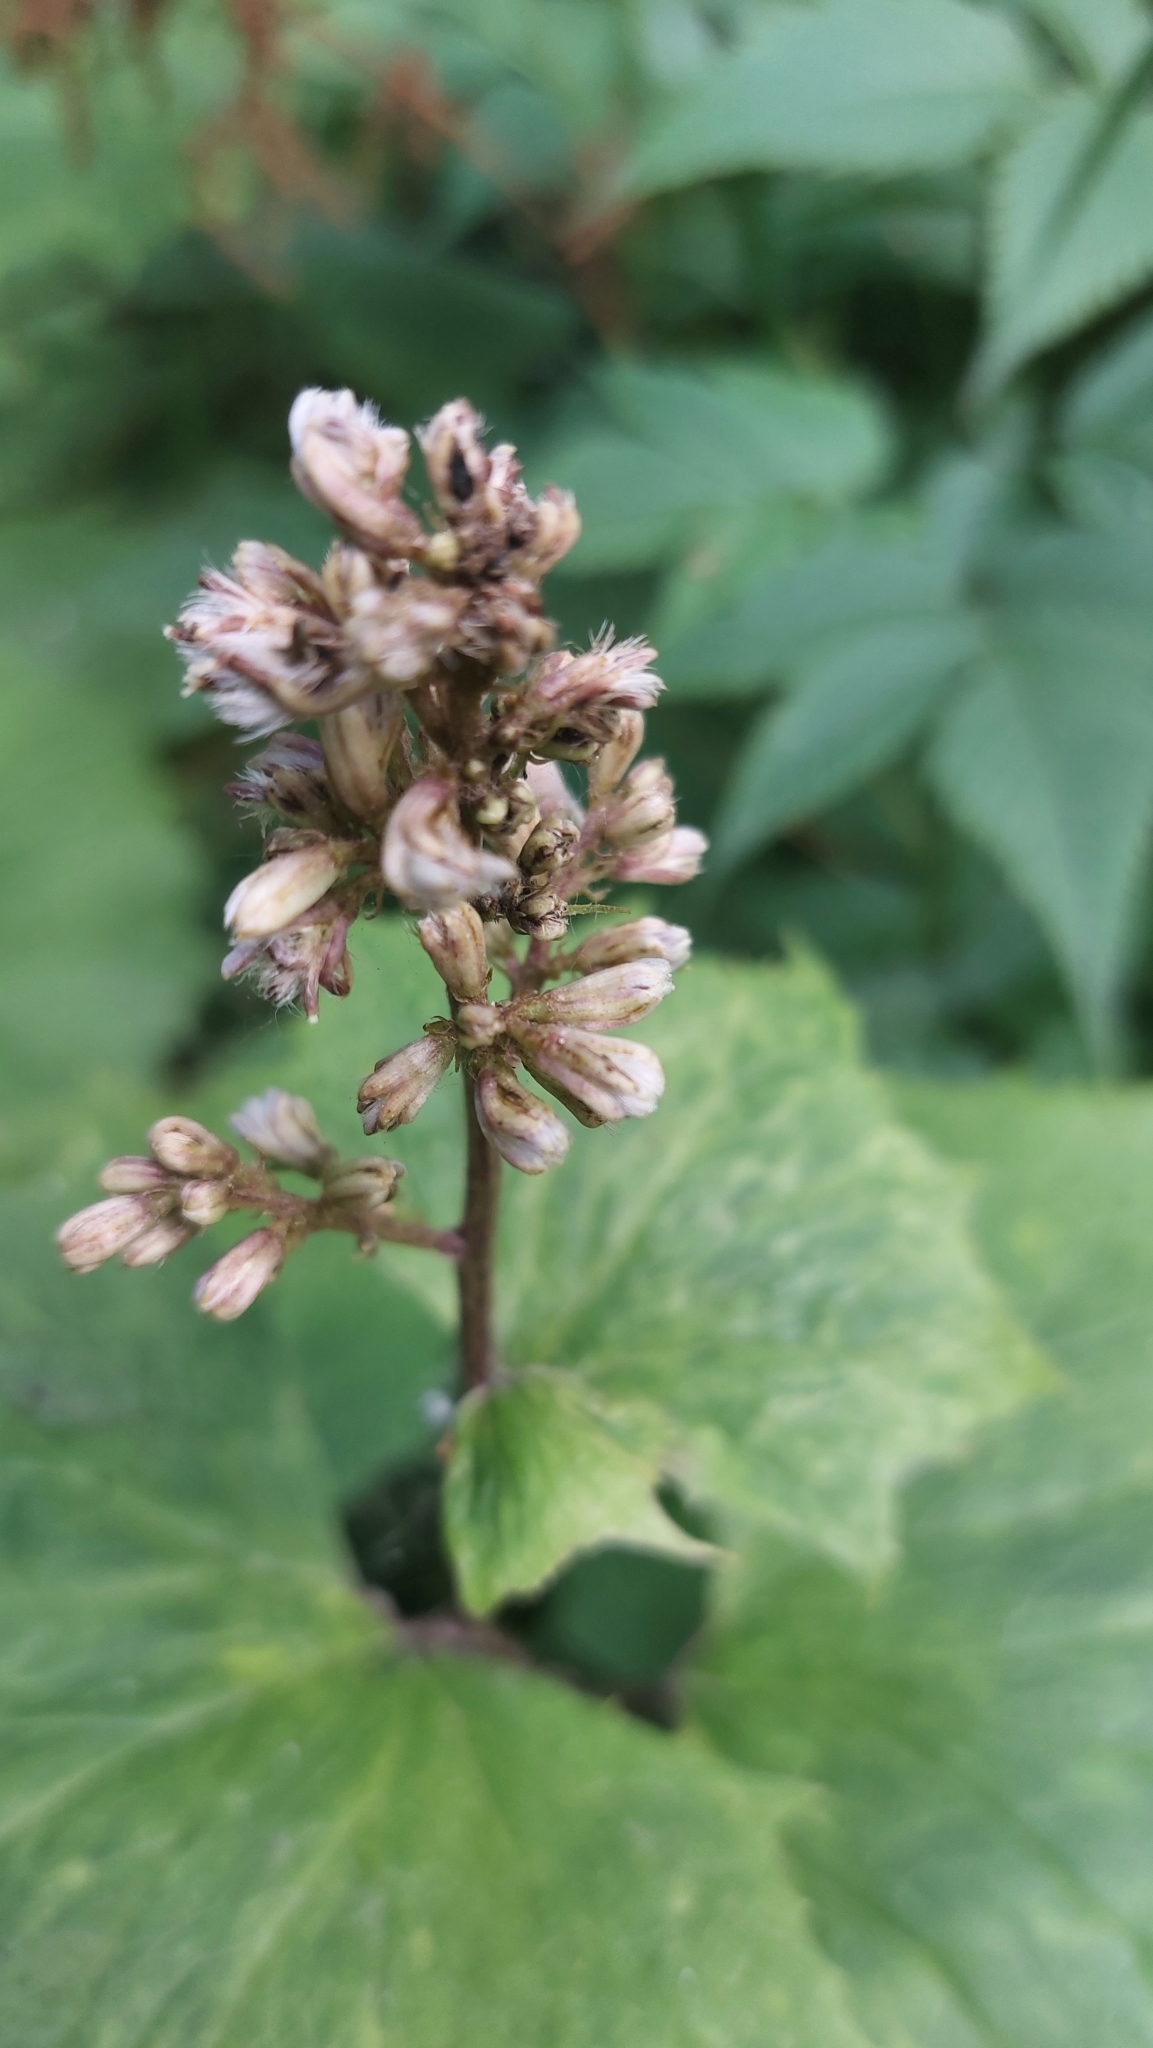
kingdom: Plantae
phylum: Tracheophyta
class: Magnoliopsida
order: Asterales
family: Asteraceae
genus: Parasenecio
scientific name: Parasenecio kamtschaticus
